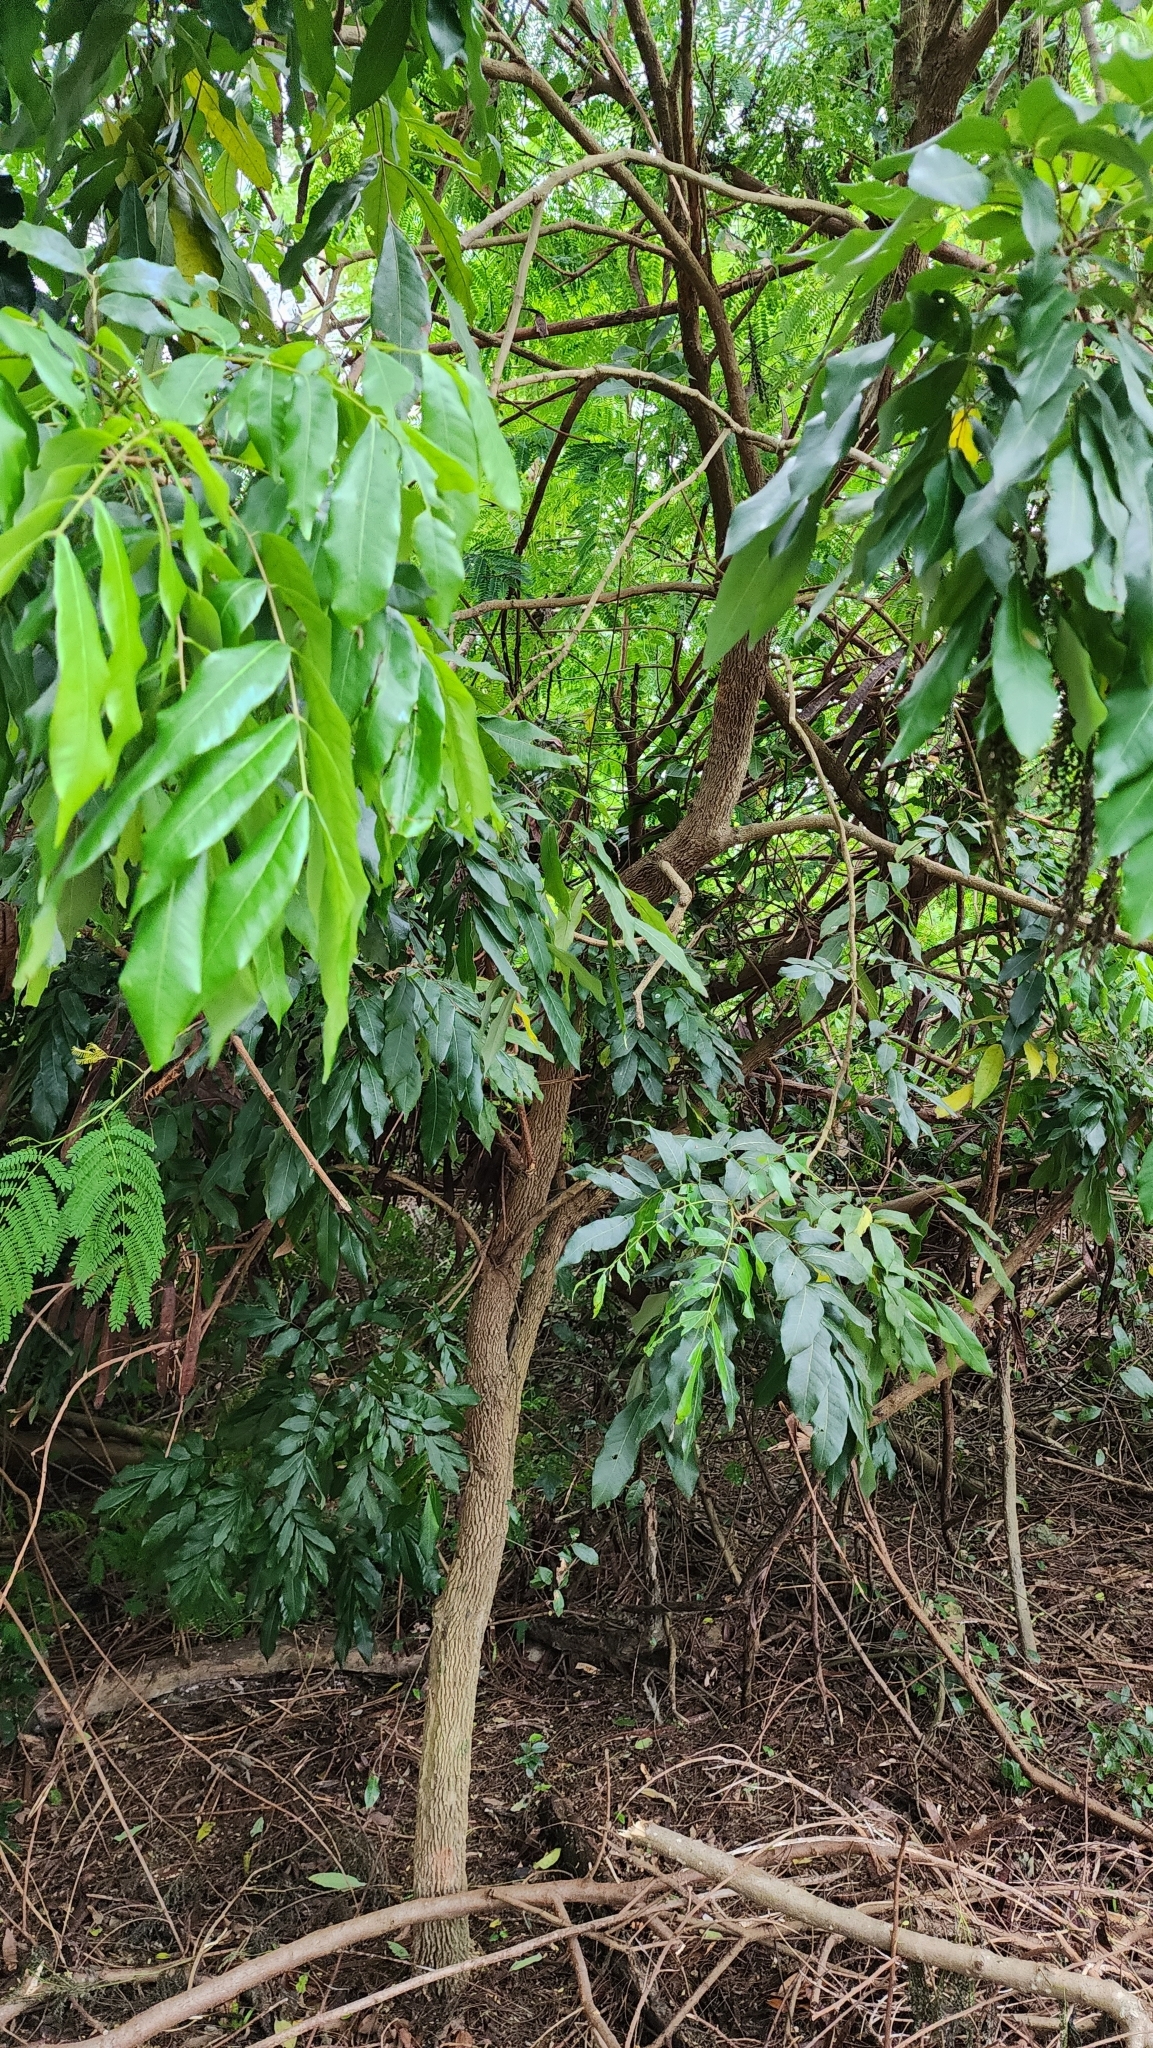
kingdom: Plantae
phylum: Tracheophyta
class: Magnoliopsida
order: Sapindales
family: Sapindaceae
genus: Dimocarpus
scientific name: Dimocarpus longan
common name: Longan
